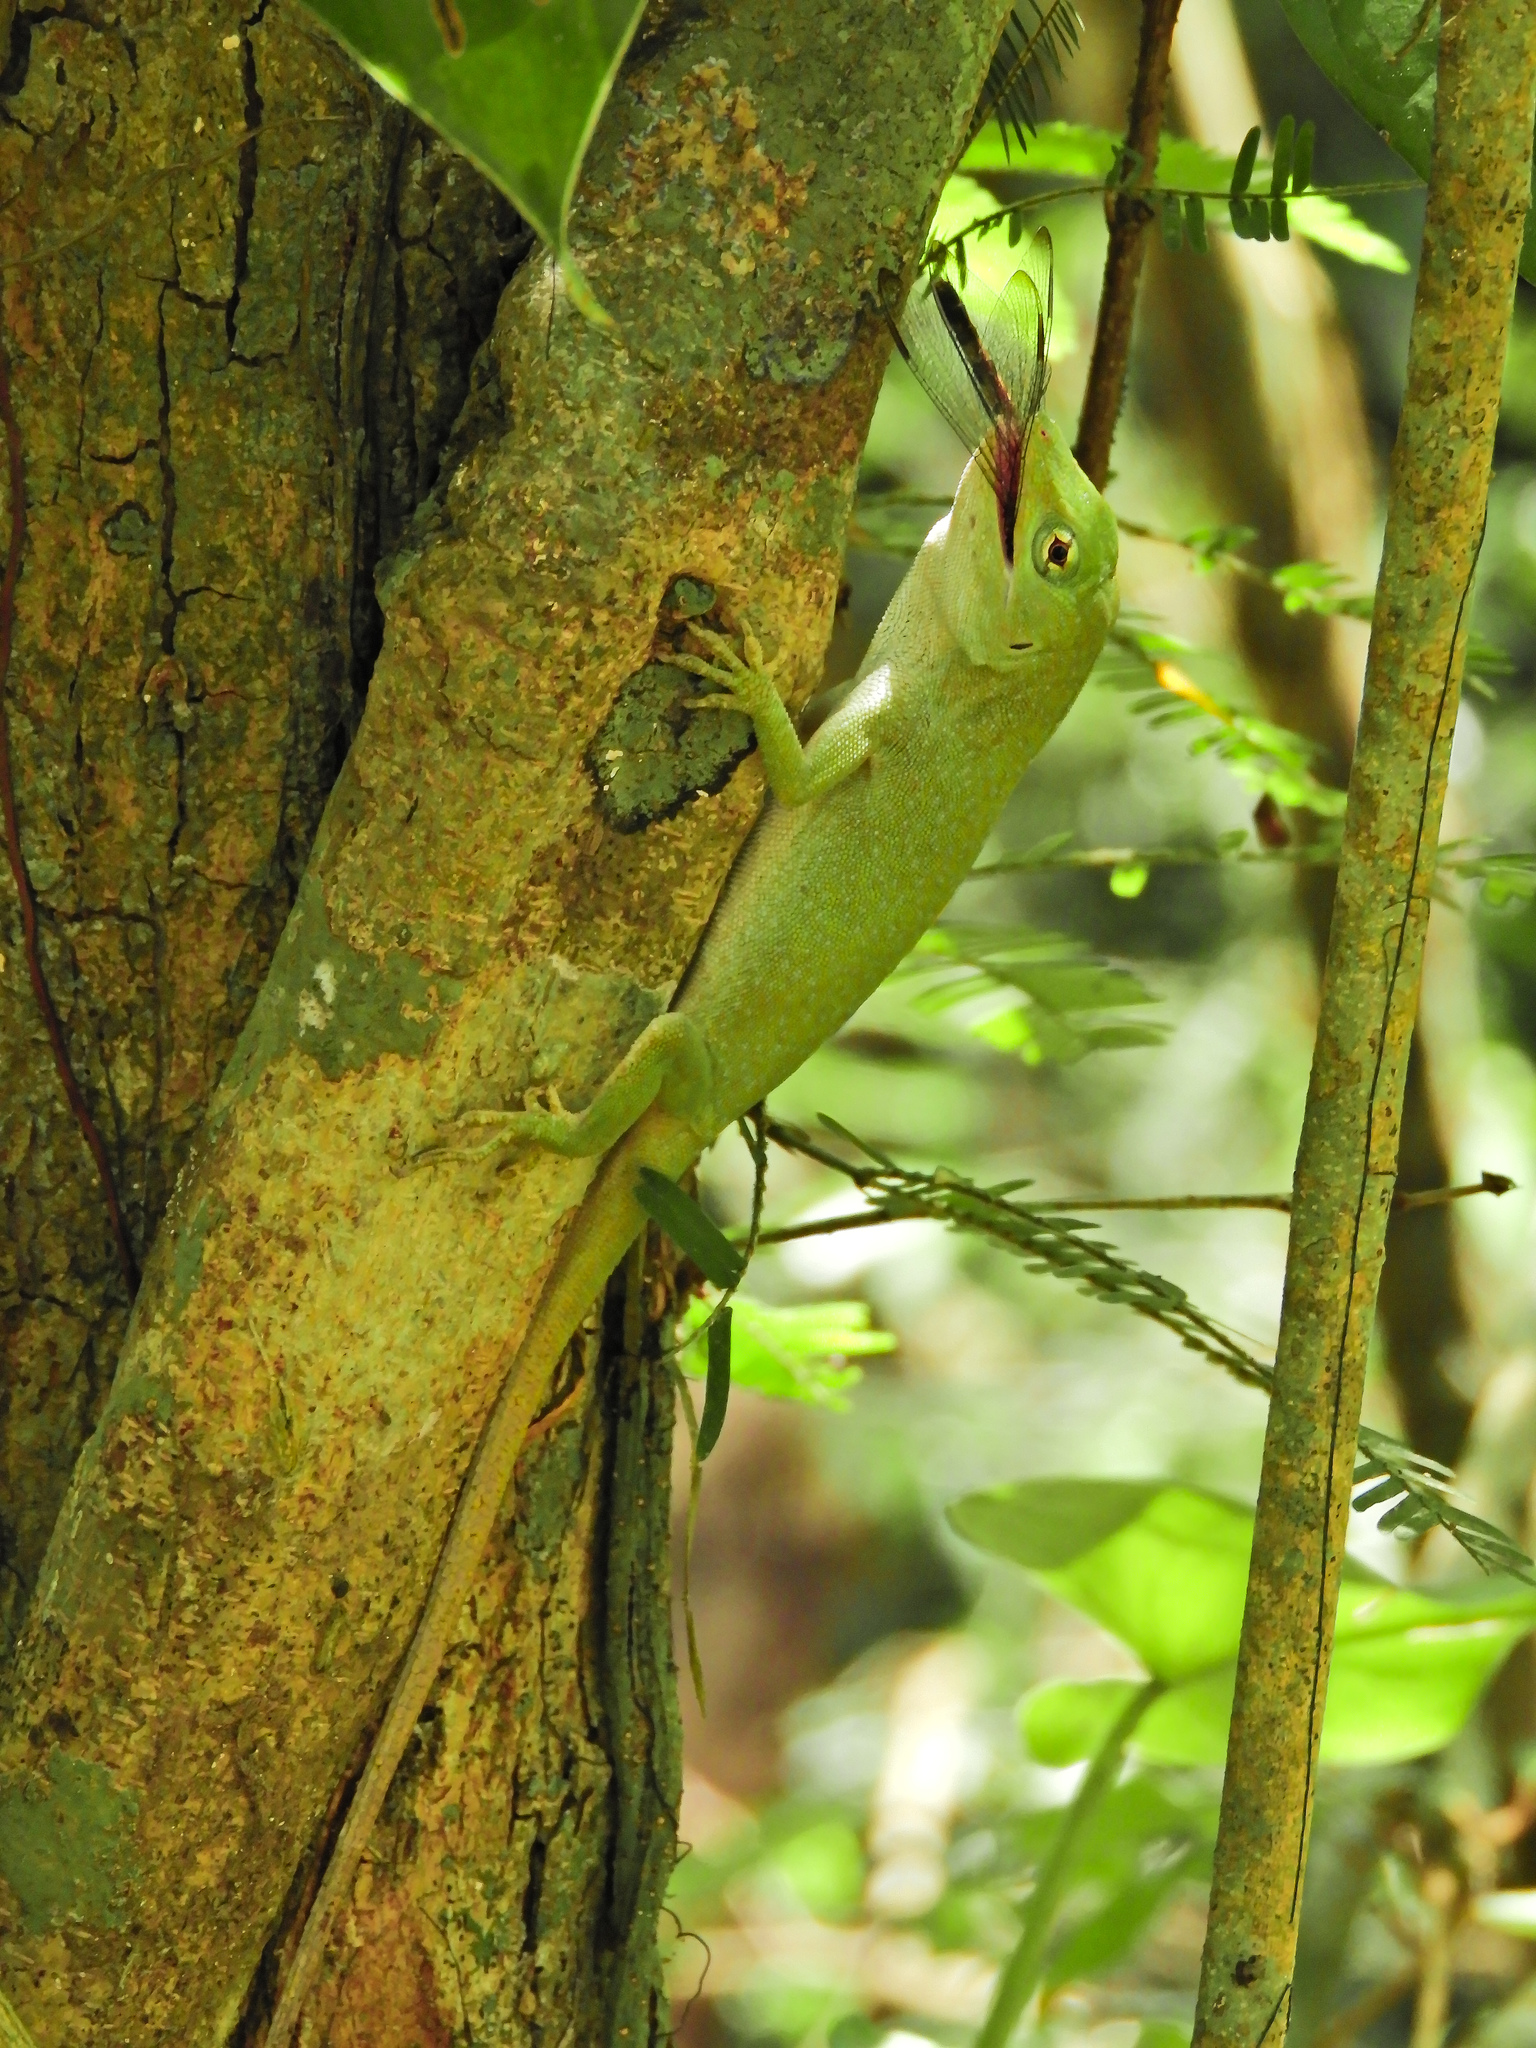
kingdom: Animalia
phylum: Chordata
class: Squamata
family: Dactyloidae
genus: Anolis
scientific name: Anolis biporcatus
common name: Giant green anole
